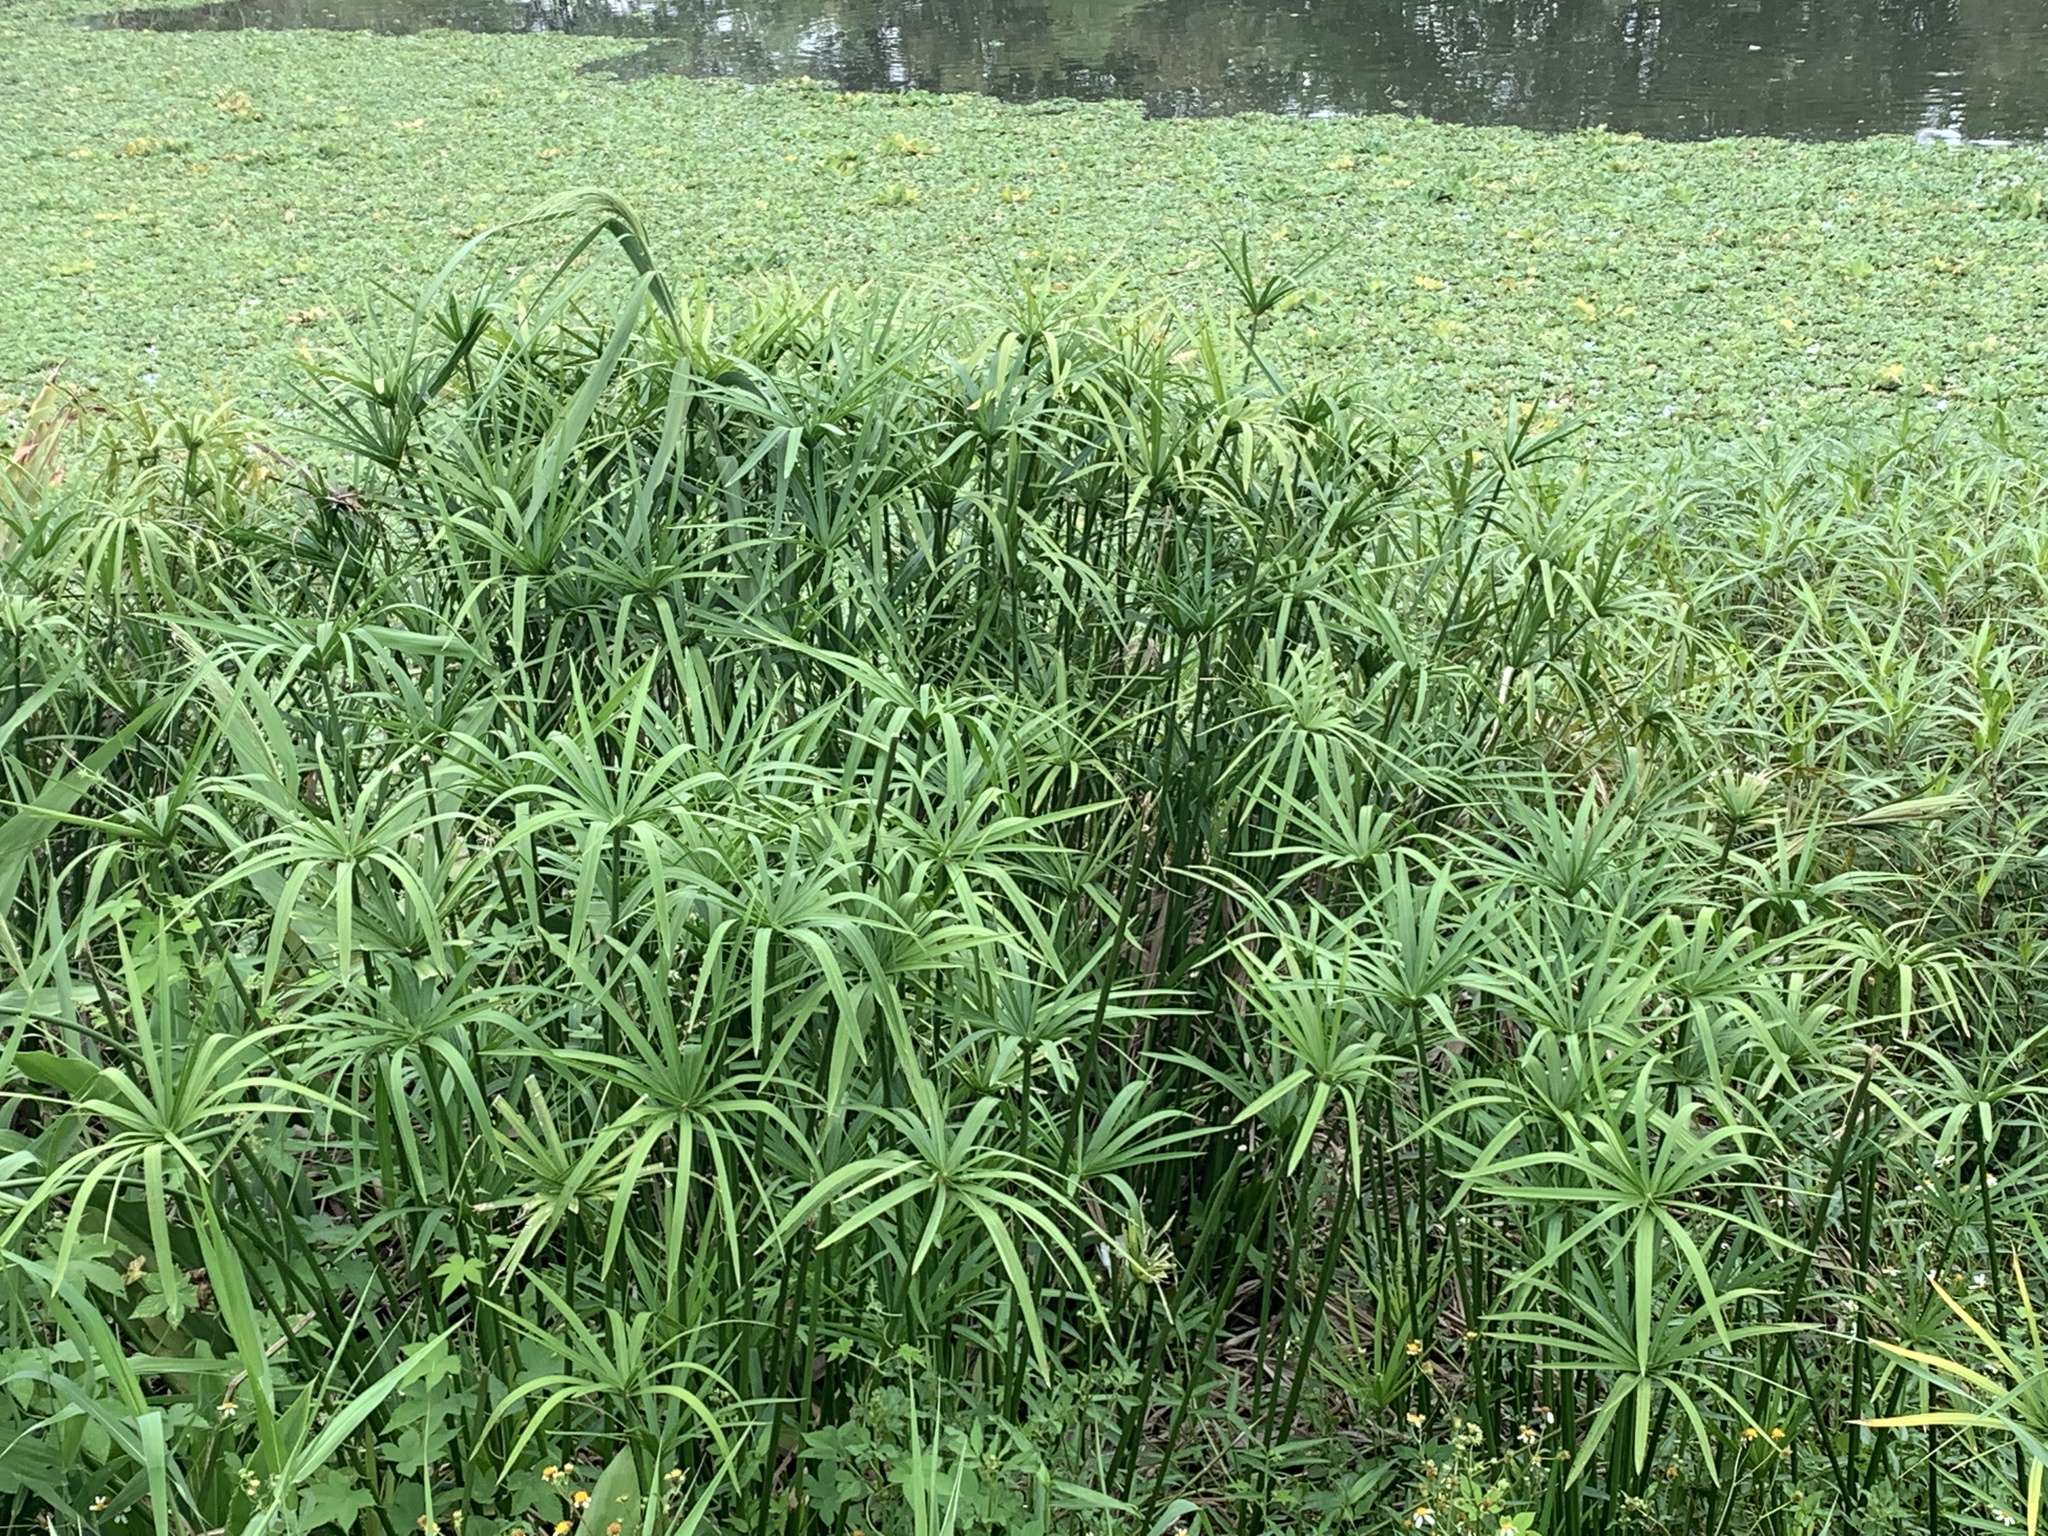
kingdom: Plantae
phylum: Tracheophyta
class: Liliopsida
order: Poales
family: Cyperaceae
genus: Cyperus
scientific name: Cyperus alternifolius
